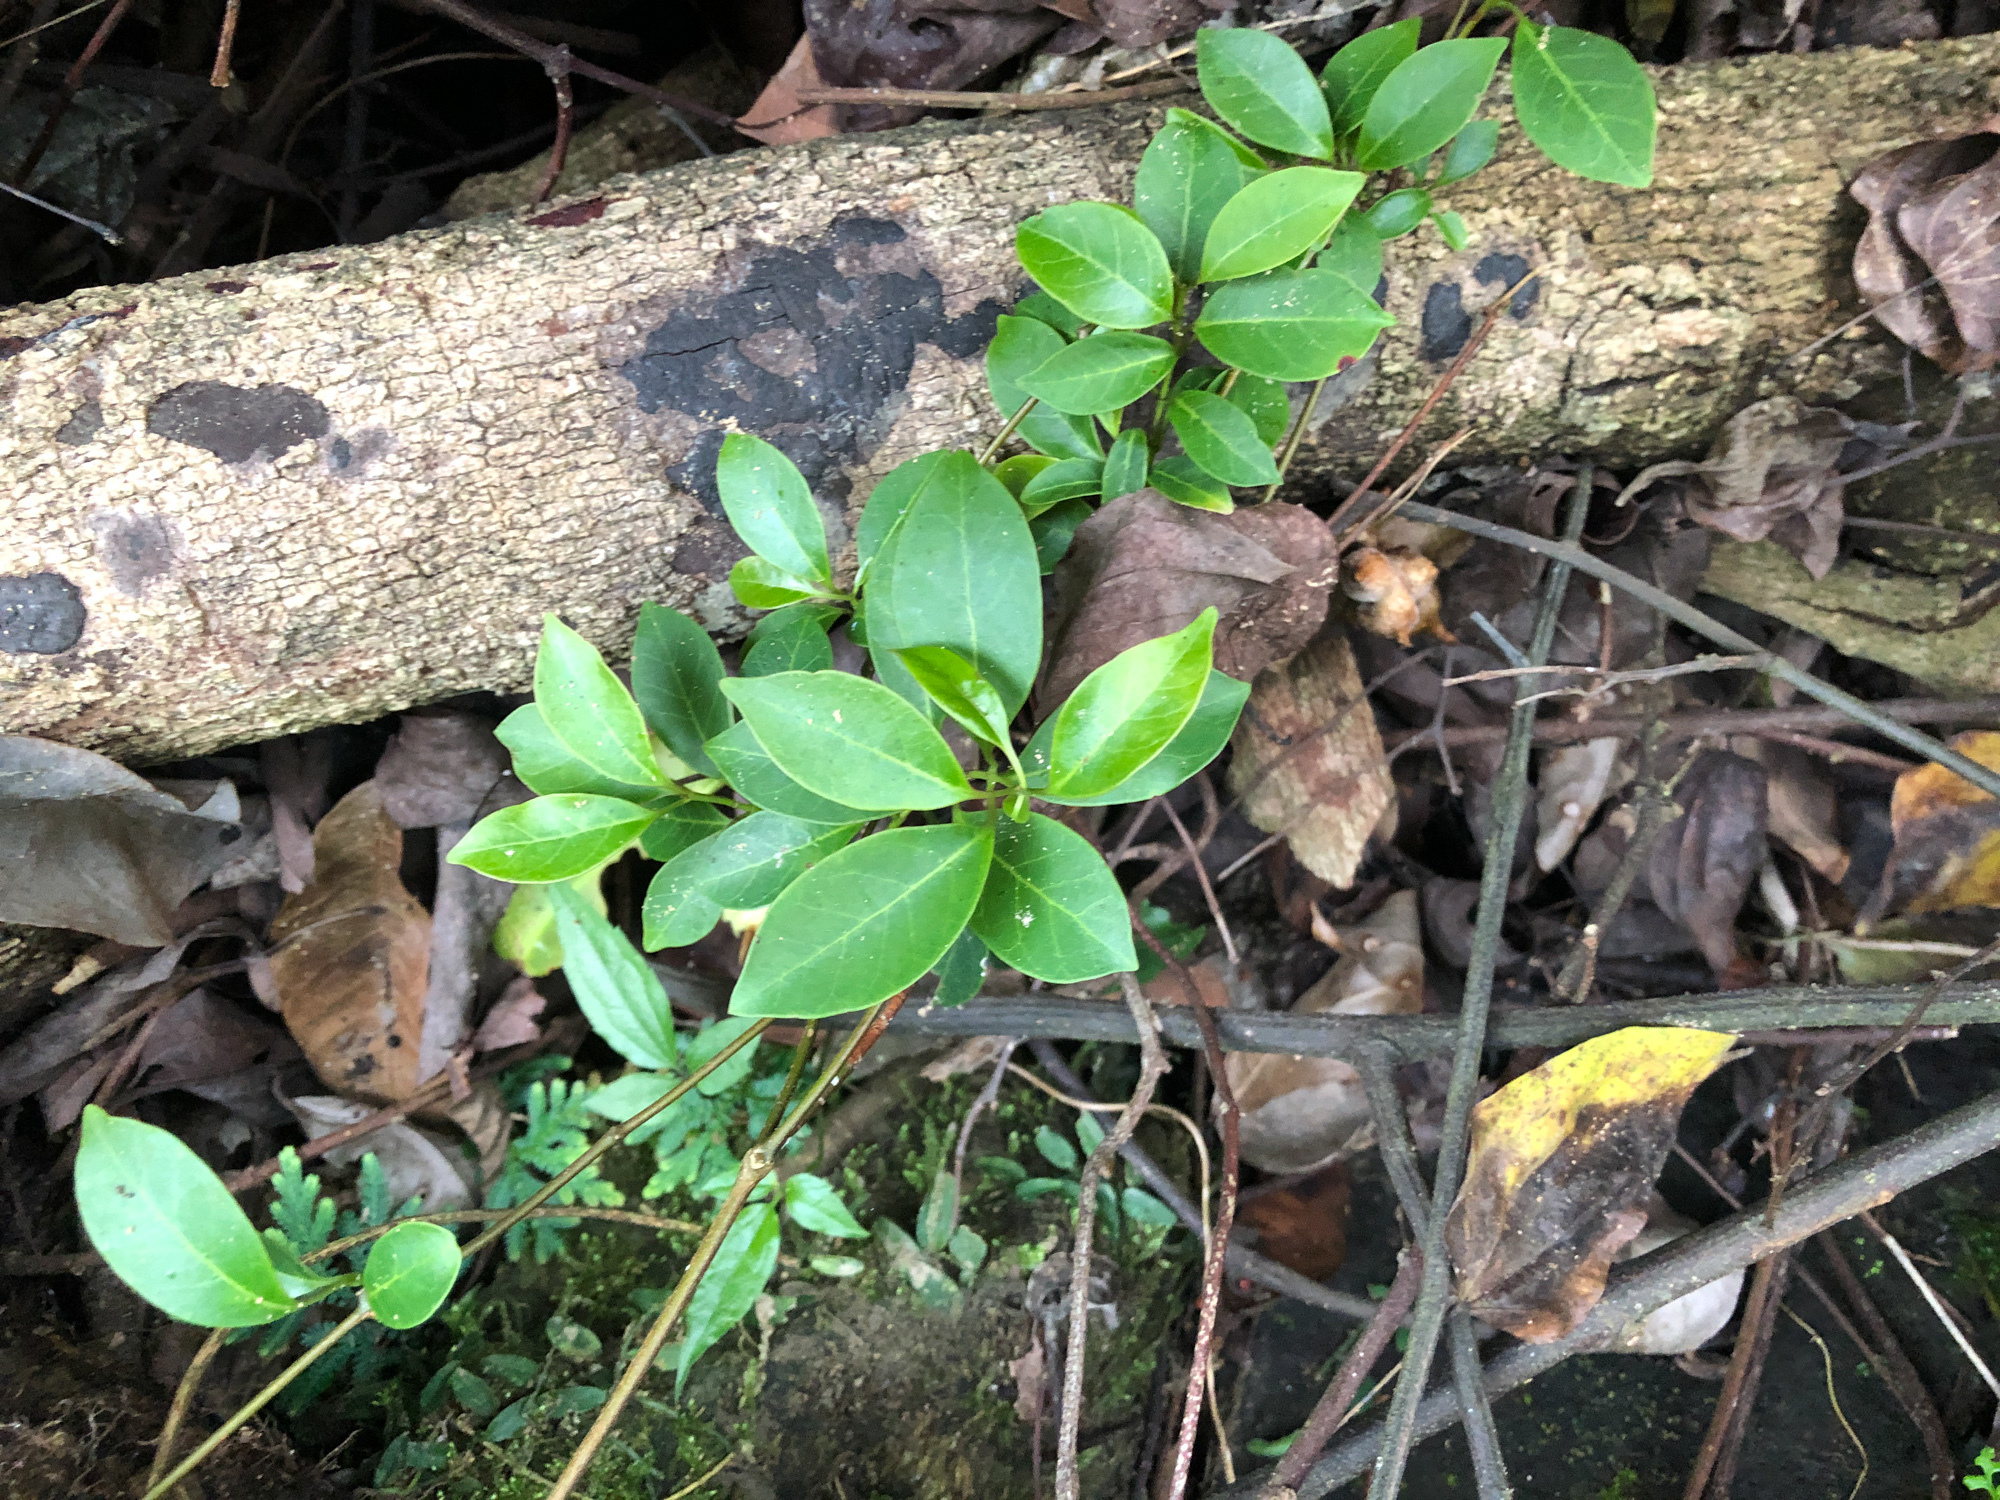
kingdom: Plantae
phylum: Tracheophyta
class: Magnoliopsida
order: Gentianales
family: Apocynaceae
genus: Urceola
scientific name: Urceola rosea
